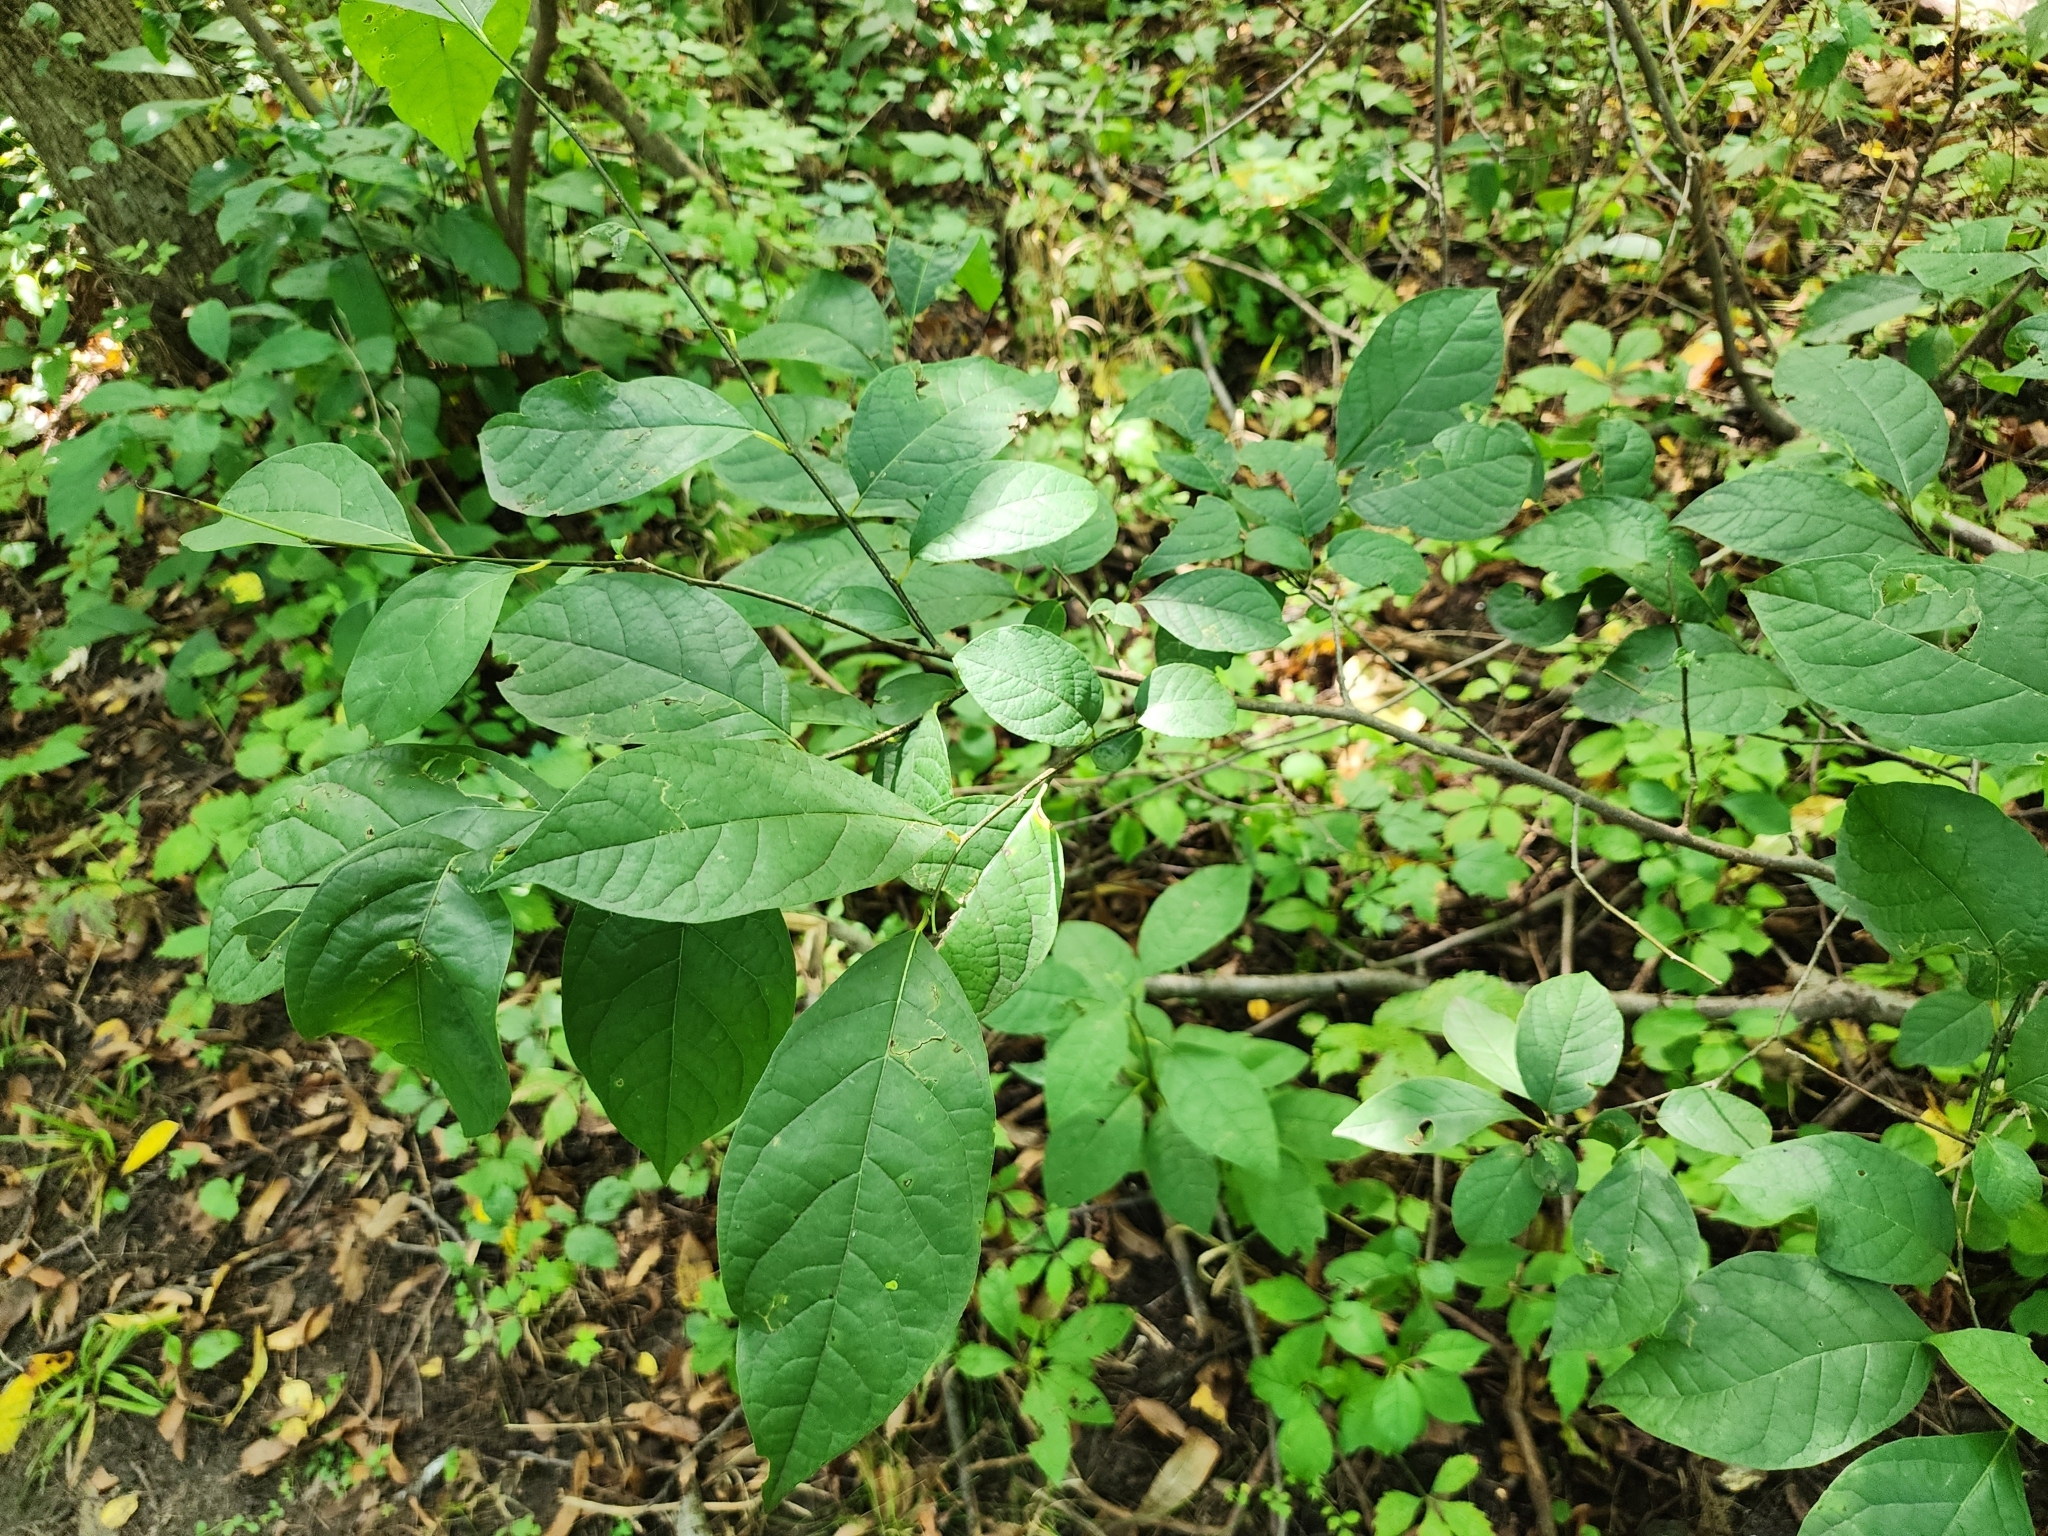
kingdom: Plantae
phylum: Tracheophyta
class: Magnoliopsida
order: Laurales
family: Lauraceae
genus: Lindera
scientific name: Lindera benzoin
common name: Spicebush
